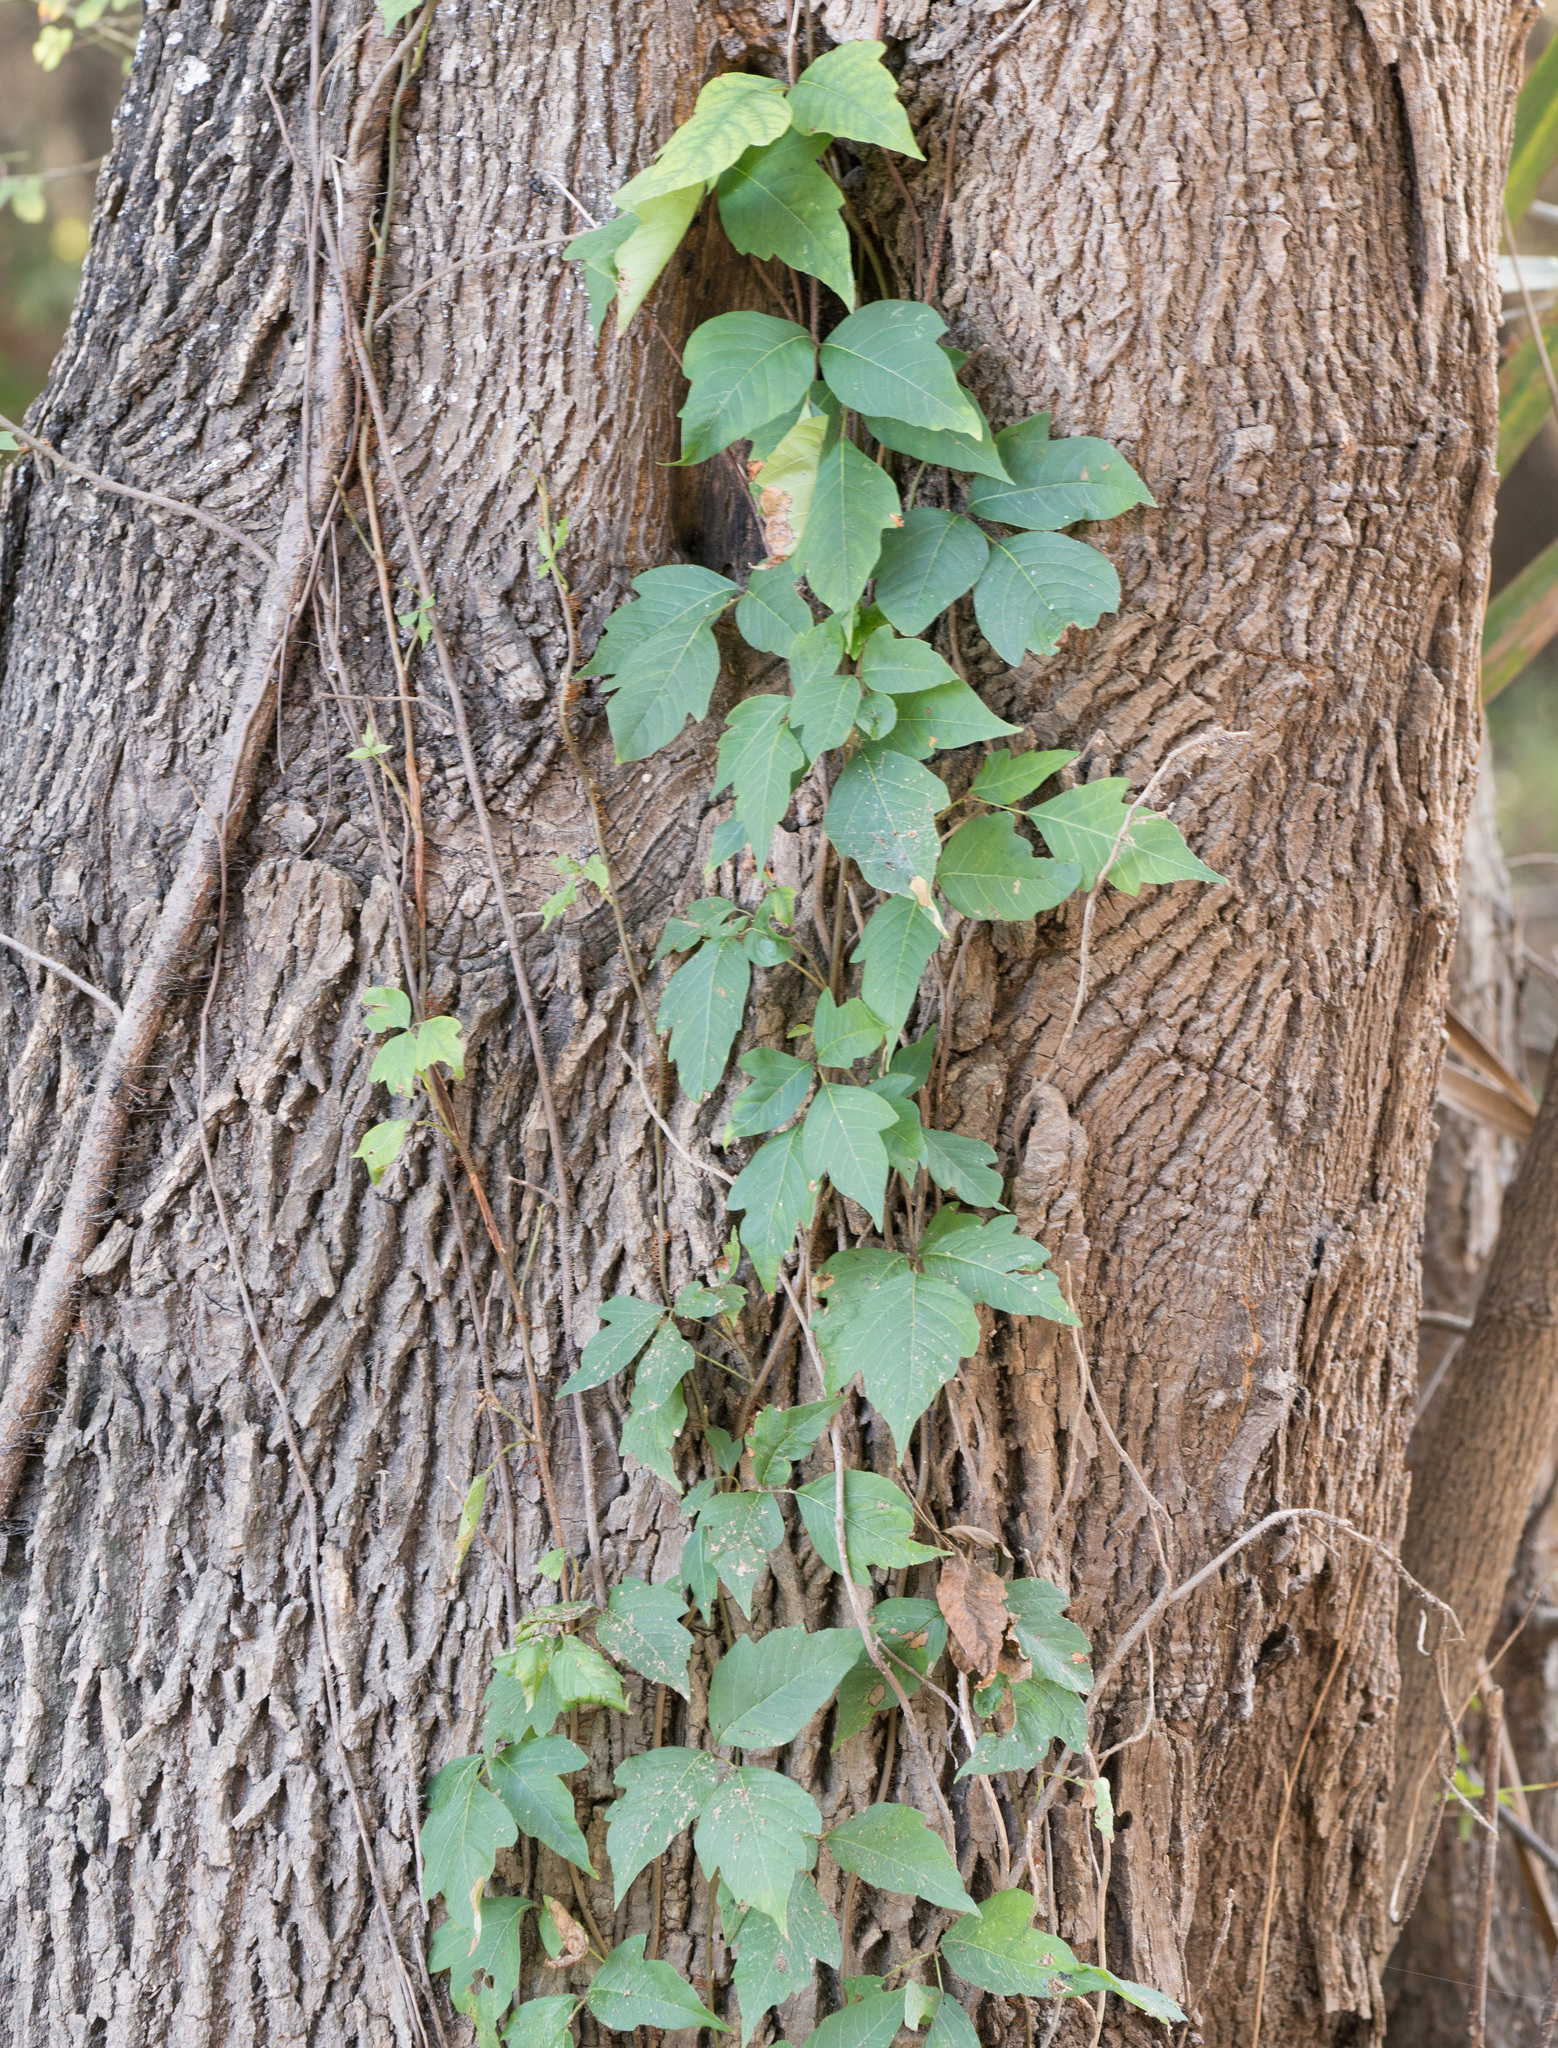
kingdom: Plantae
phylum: Tracheophyta
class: Magnoliopsida
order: Sapindales
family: Anacardiaceae
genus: Toxicodendron
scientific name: Toxicodendron radicans
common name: Poison ivy
